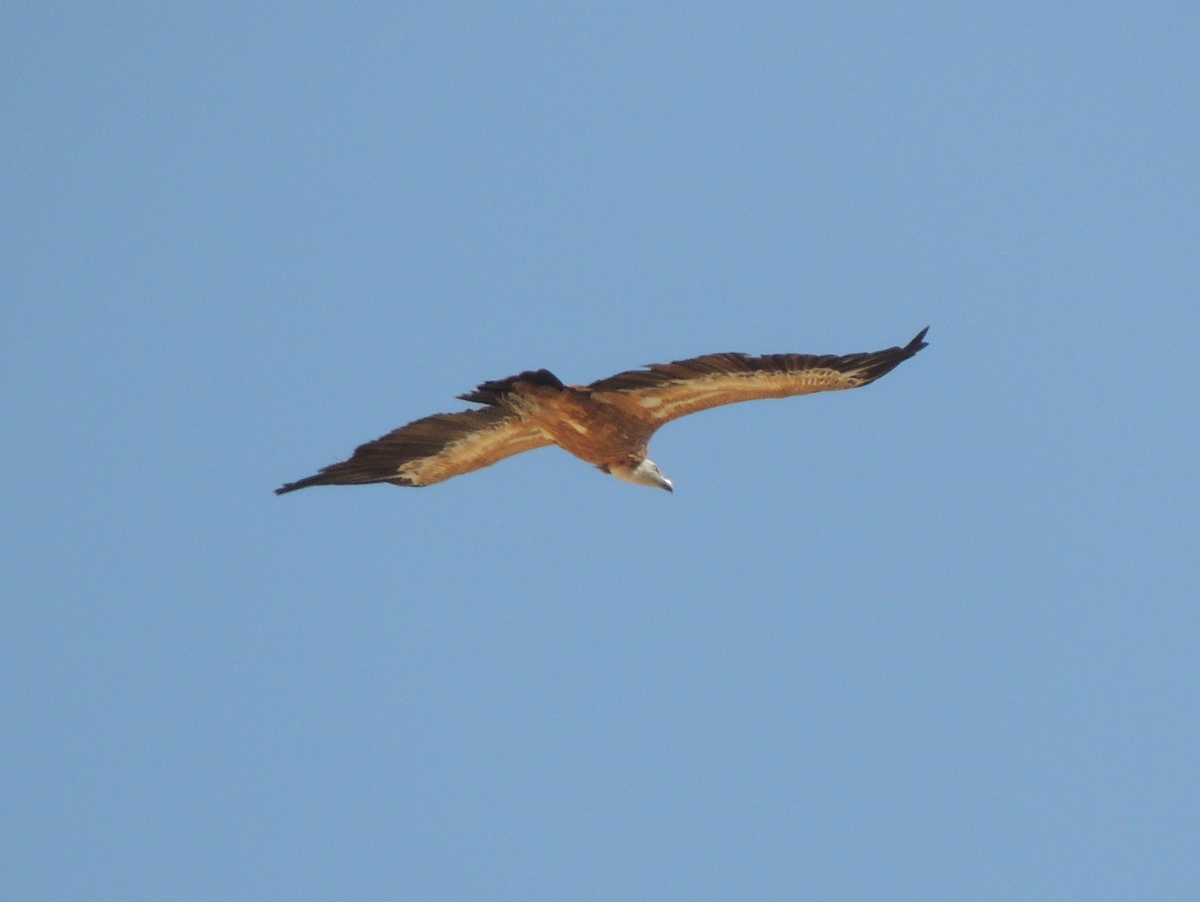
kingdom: Animalia
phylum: Chordata
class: Aves
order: Accipitriformes
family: Accipitridae
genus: Gyps
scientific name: Gyps fulvus
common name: Griffon vulture
